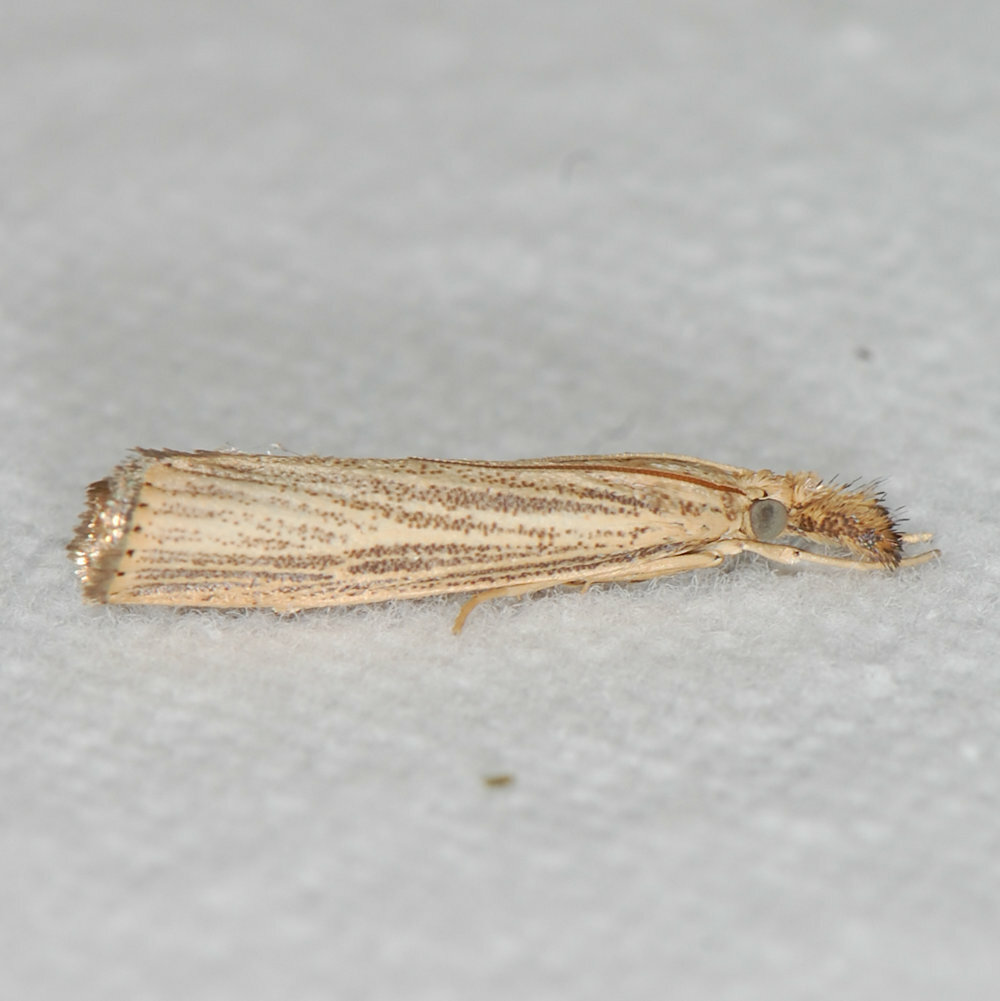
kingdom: Animalia
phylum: Arthropoda
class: Insecta
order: Lepidoptera
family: Crambidae
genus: Agriphila
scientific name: Agriphila vulgivagellus
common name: Vagabond crambus moth
